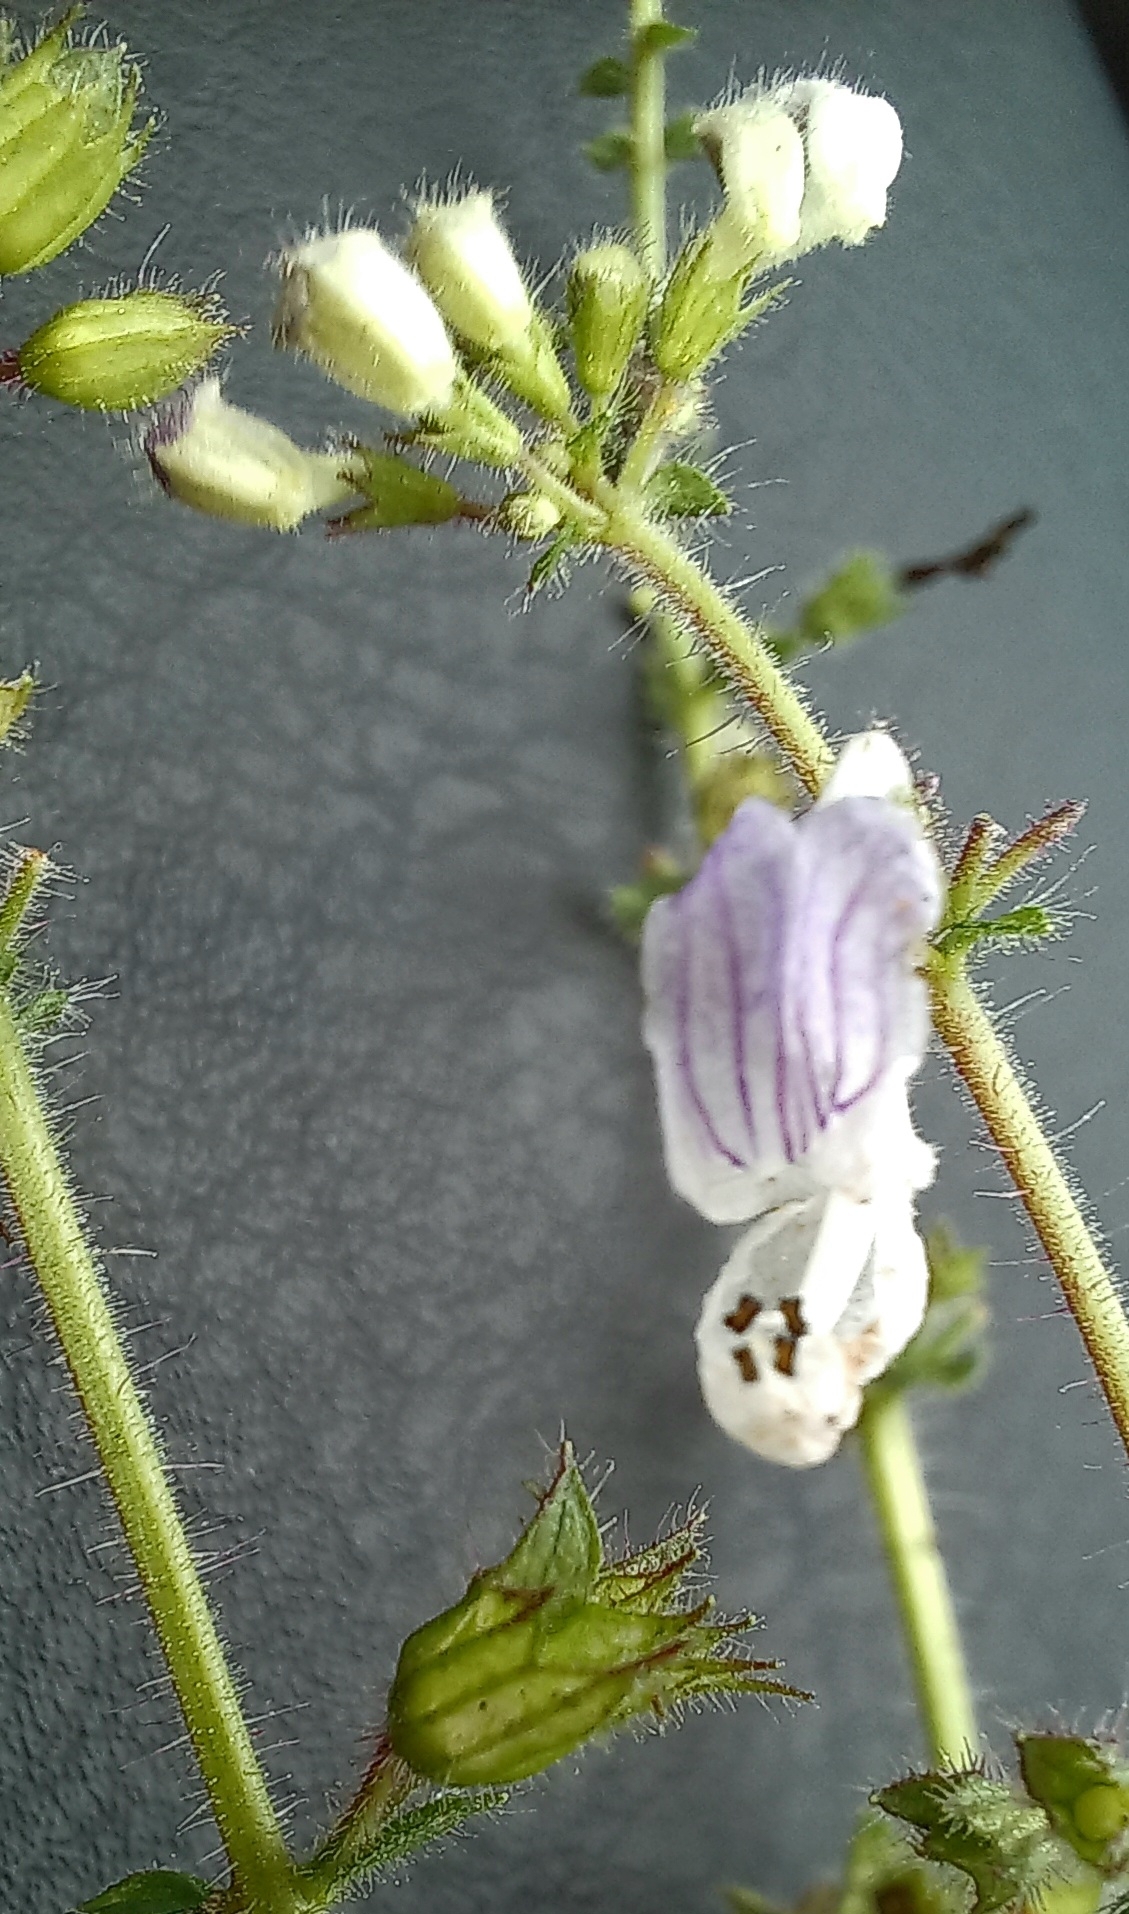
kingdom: Plantae
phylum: Tracheophyta
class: Magnoliopsida
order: Lamiales
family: Lamiaceae
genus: Equilabium
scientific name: Equilabium laxiflorum
